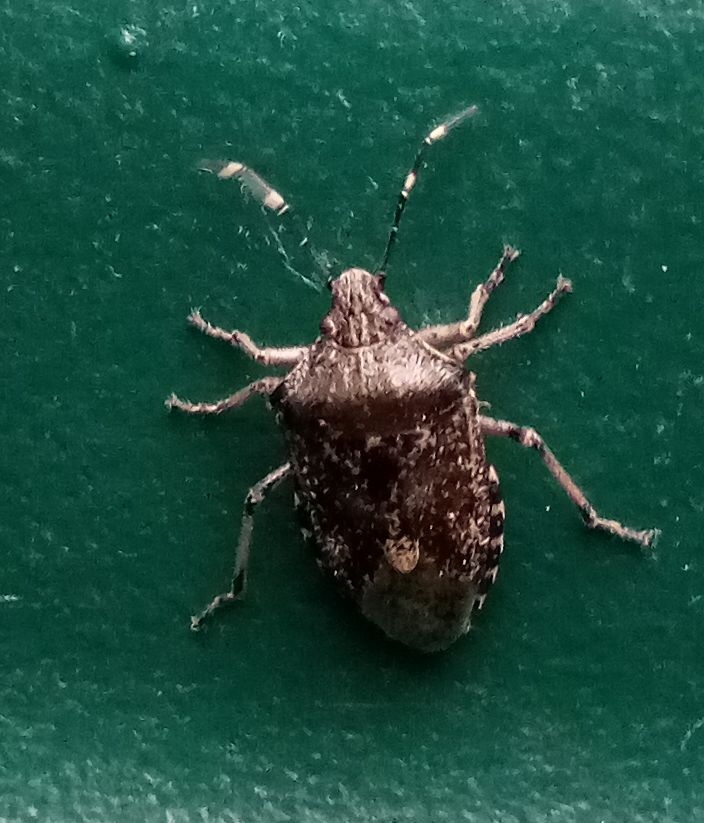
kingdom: Animalia
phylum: Arthropoda
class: Insecta
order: Hemiptera
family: Pentatomidae
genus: Rhaphigaster
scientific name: Rhaphigaster nebulosa
